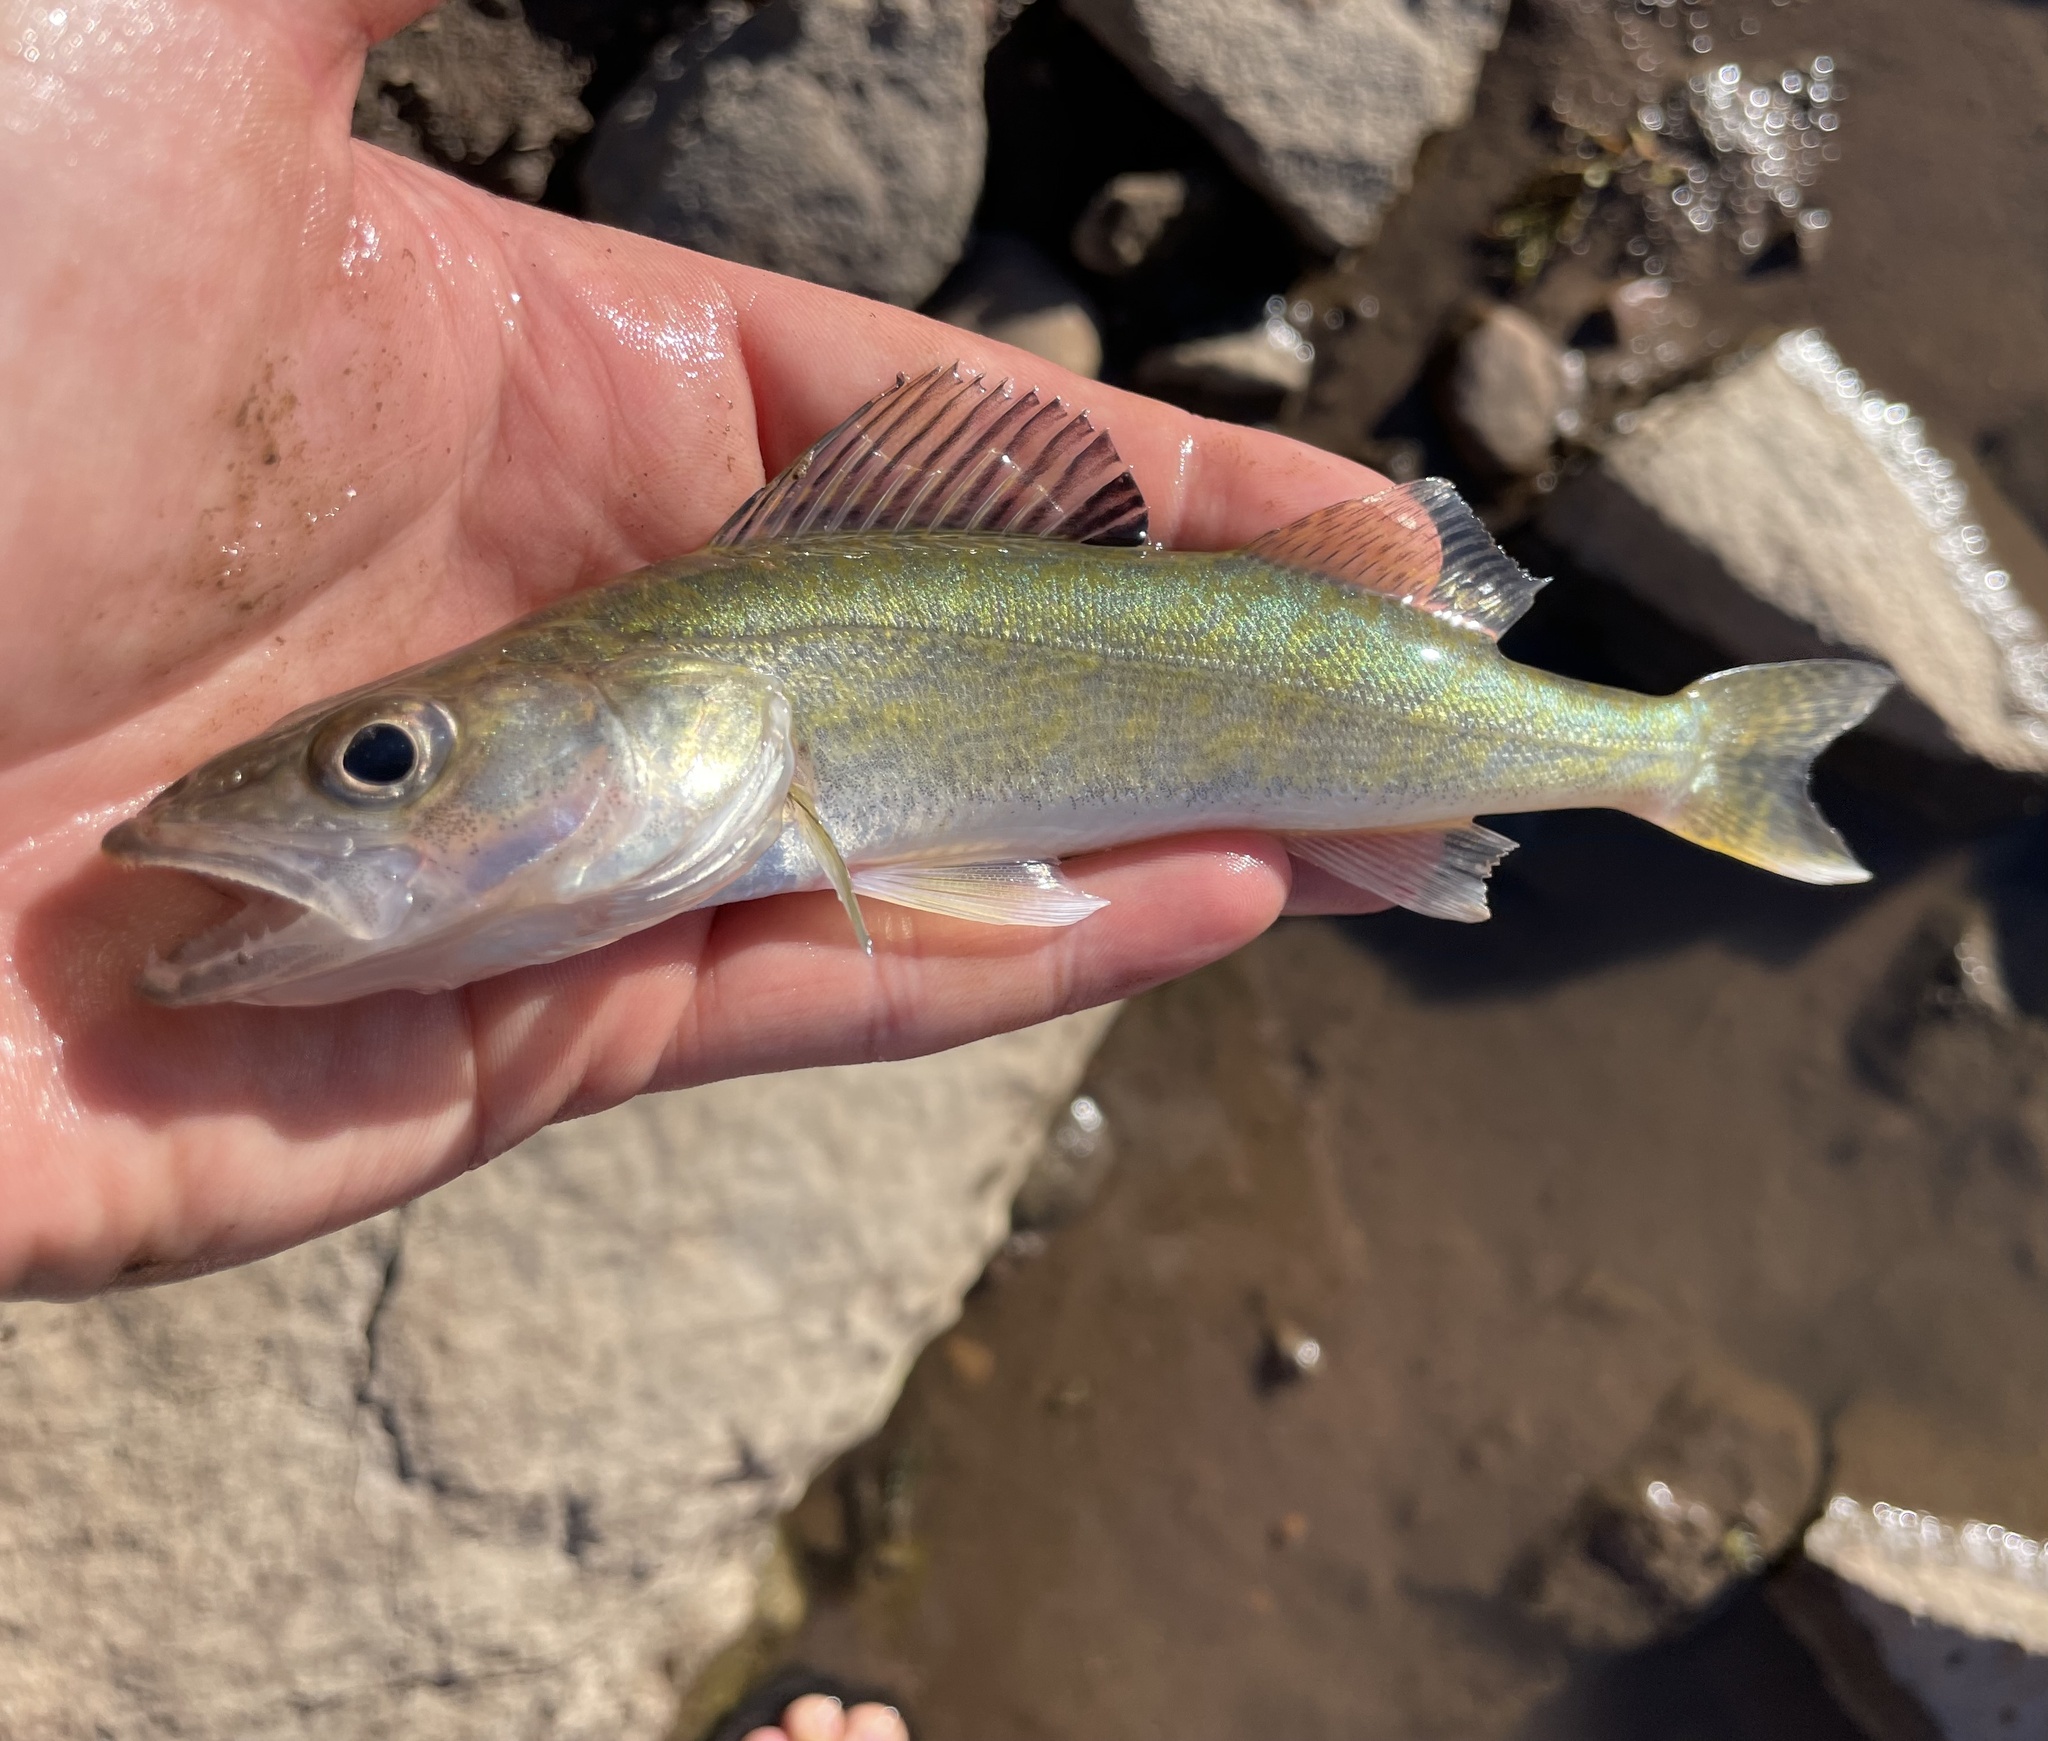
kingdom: Animalia
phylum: Chordata
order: Perciformes
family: Percidae
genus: Sander
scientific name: Sander vitreus
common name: Walleye
